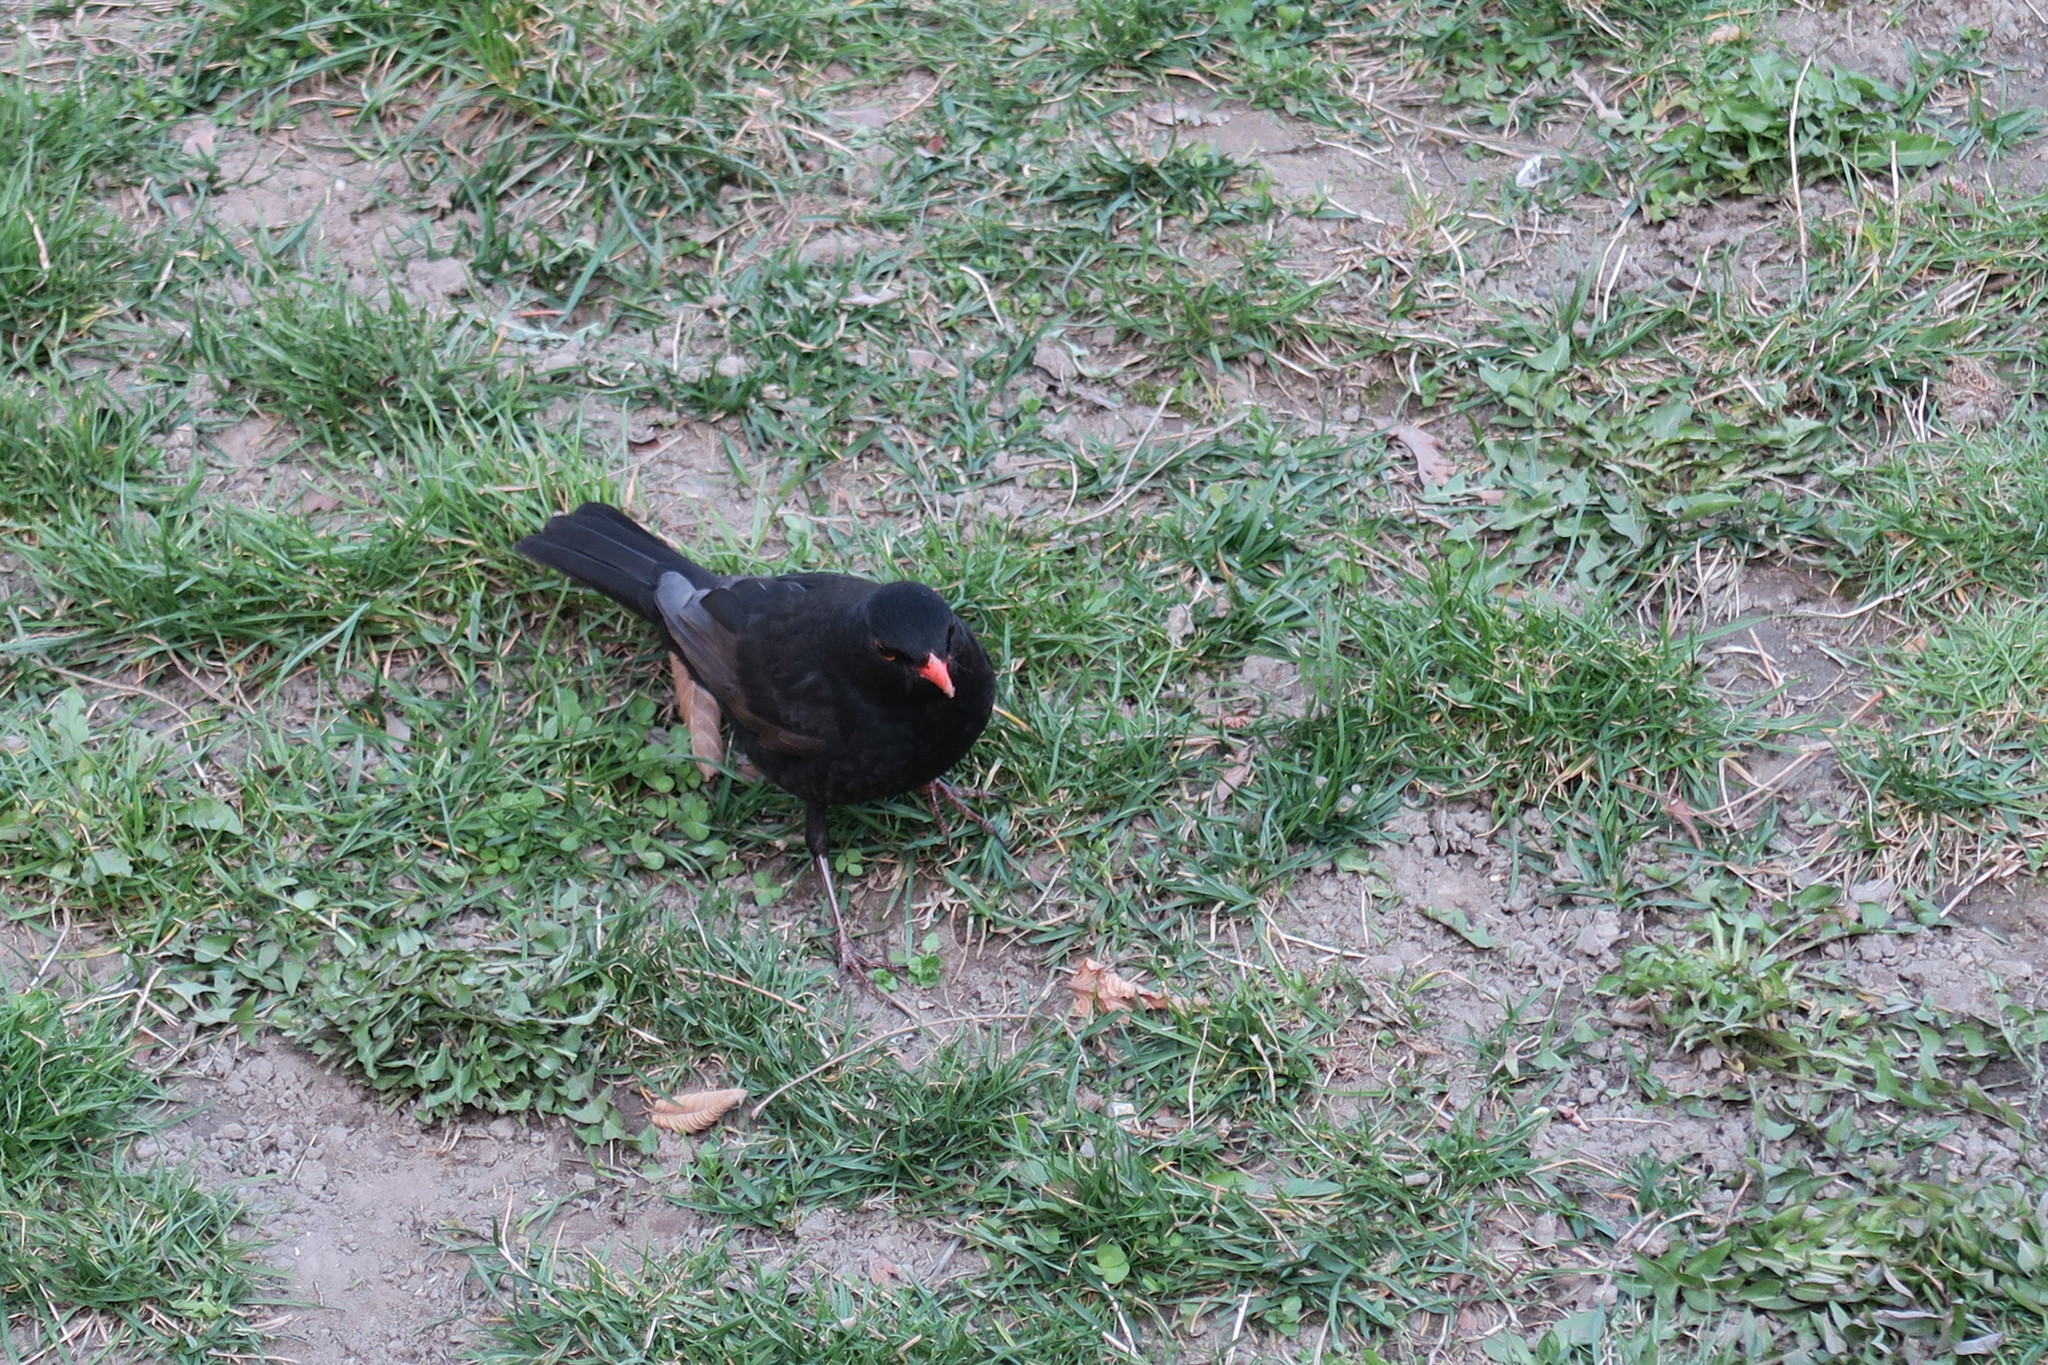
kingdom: Animalia
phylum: Chordata
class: Aves
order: Passeriformes
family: Turdidae
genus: Turdus
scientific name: Turdus merula
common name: Common blackbird
